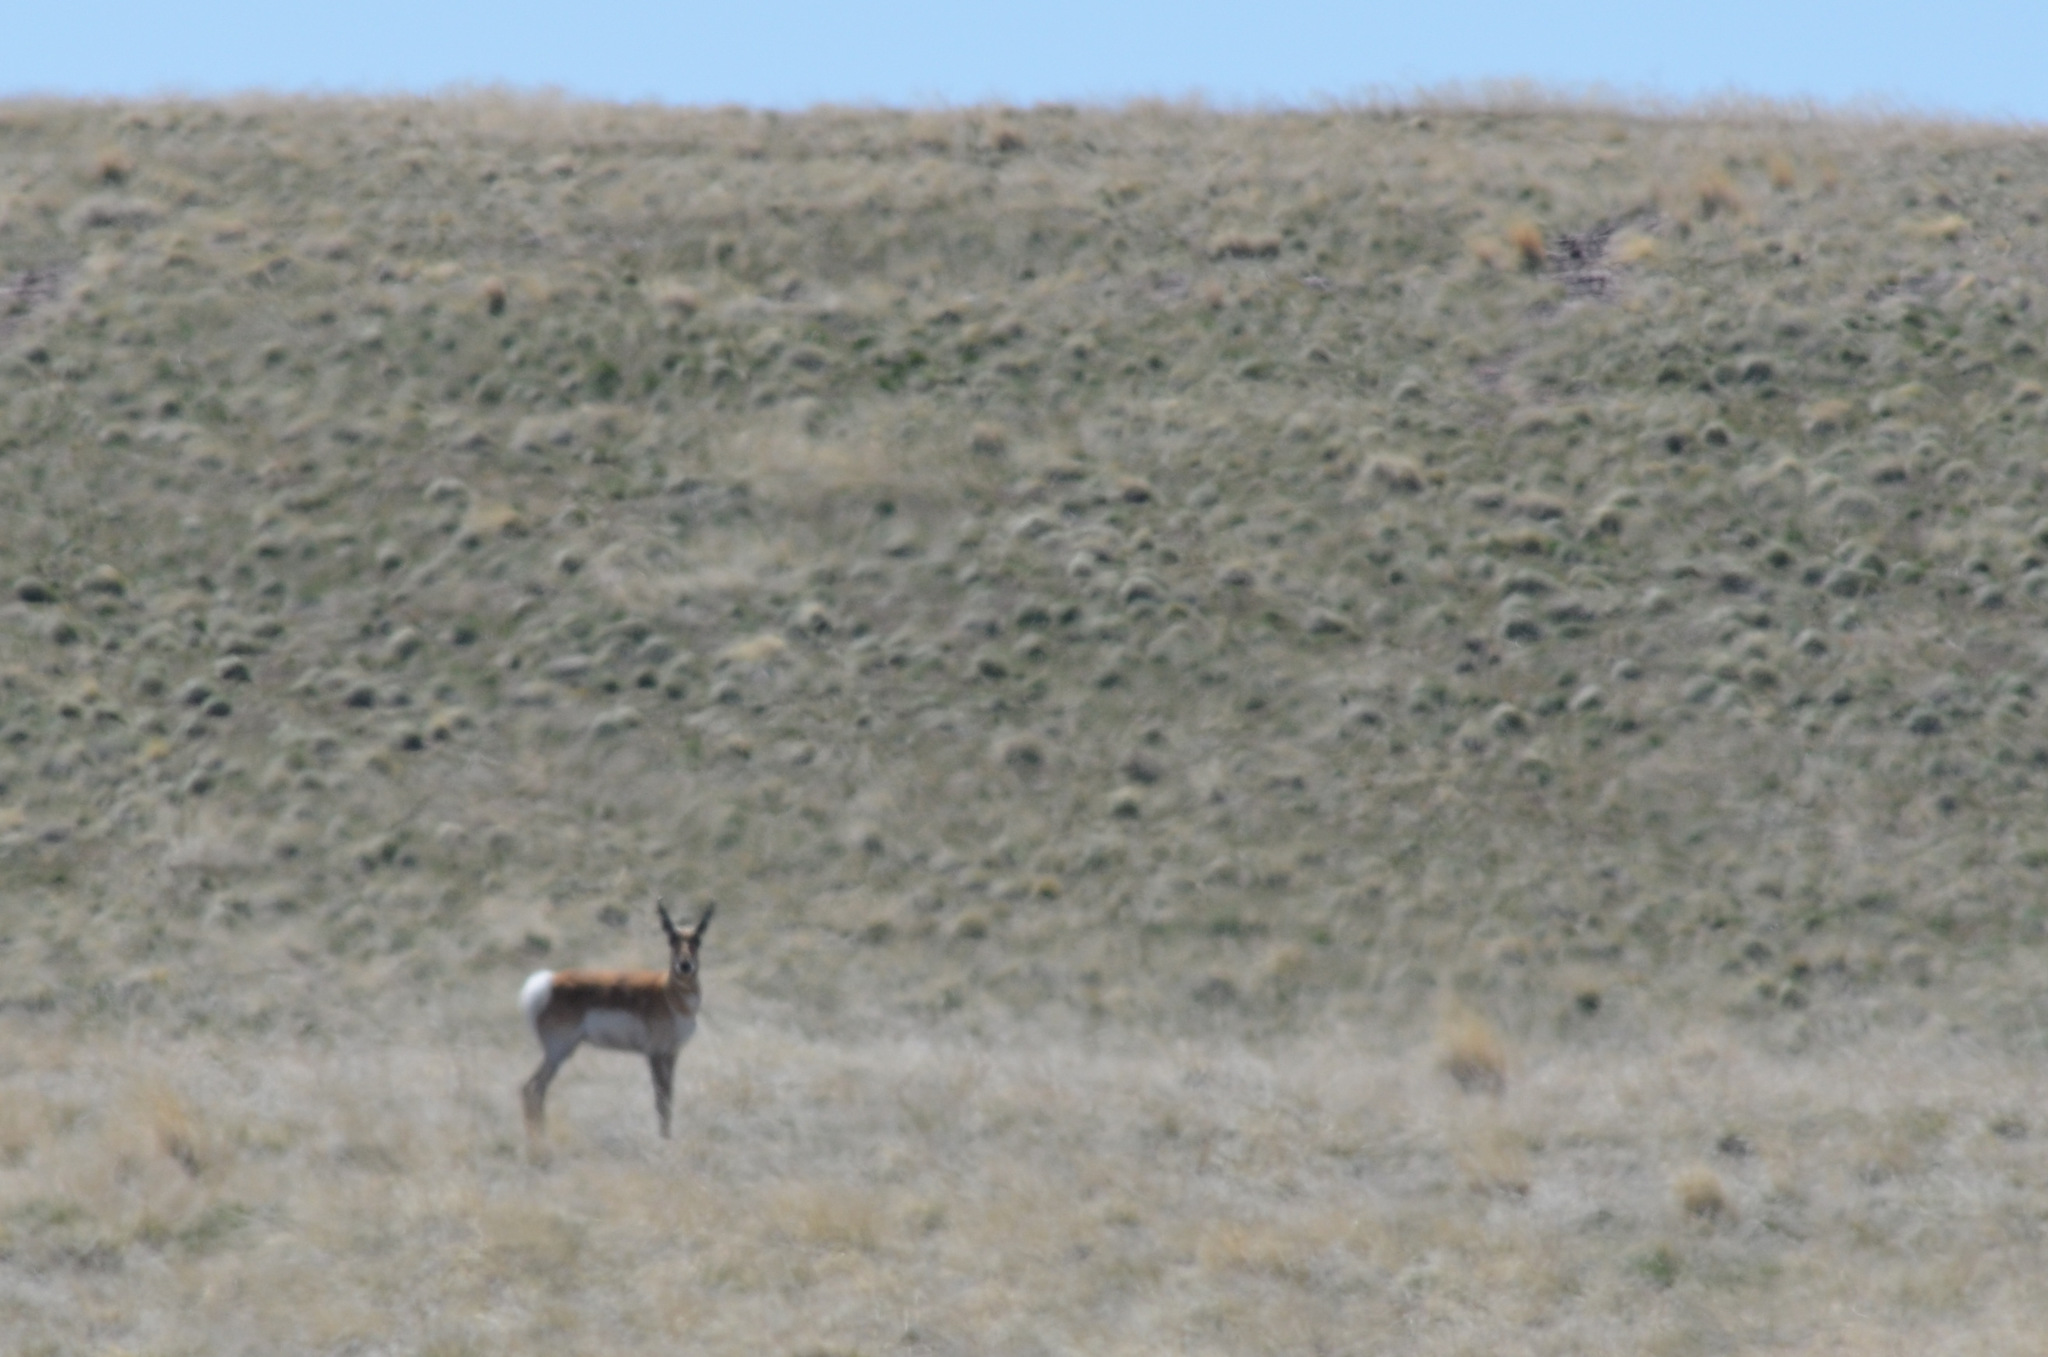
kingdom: Animalia
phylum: Chordata
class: Mammalia
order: Artiodactyla
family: Antilocapridae
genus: Antilocapra
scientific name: Antilocapra americana
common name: Pronghorn
